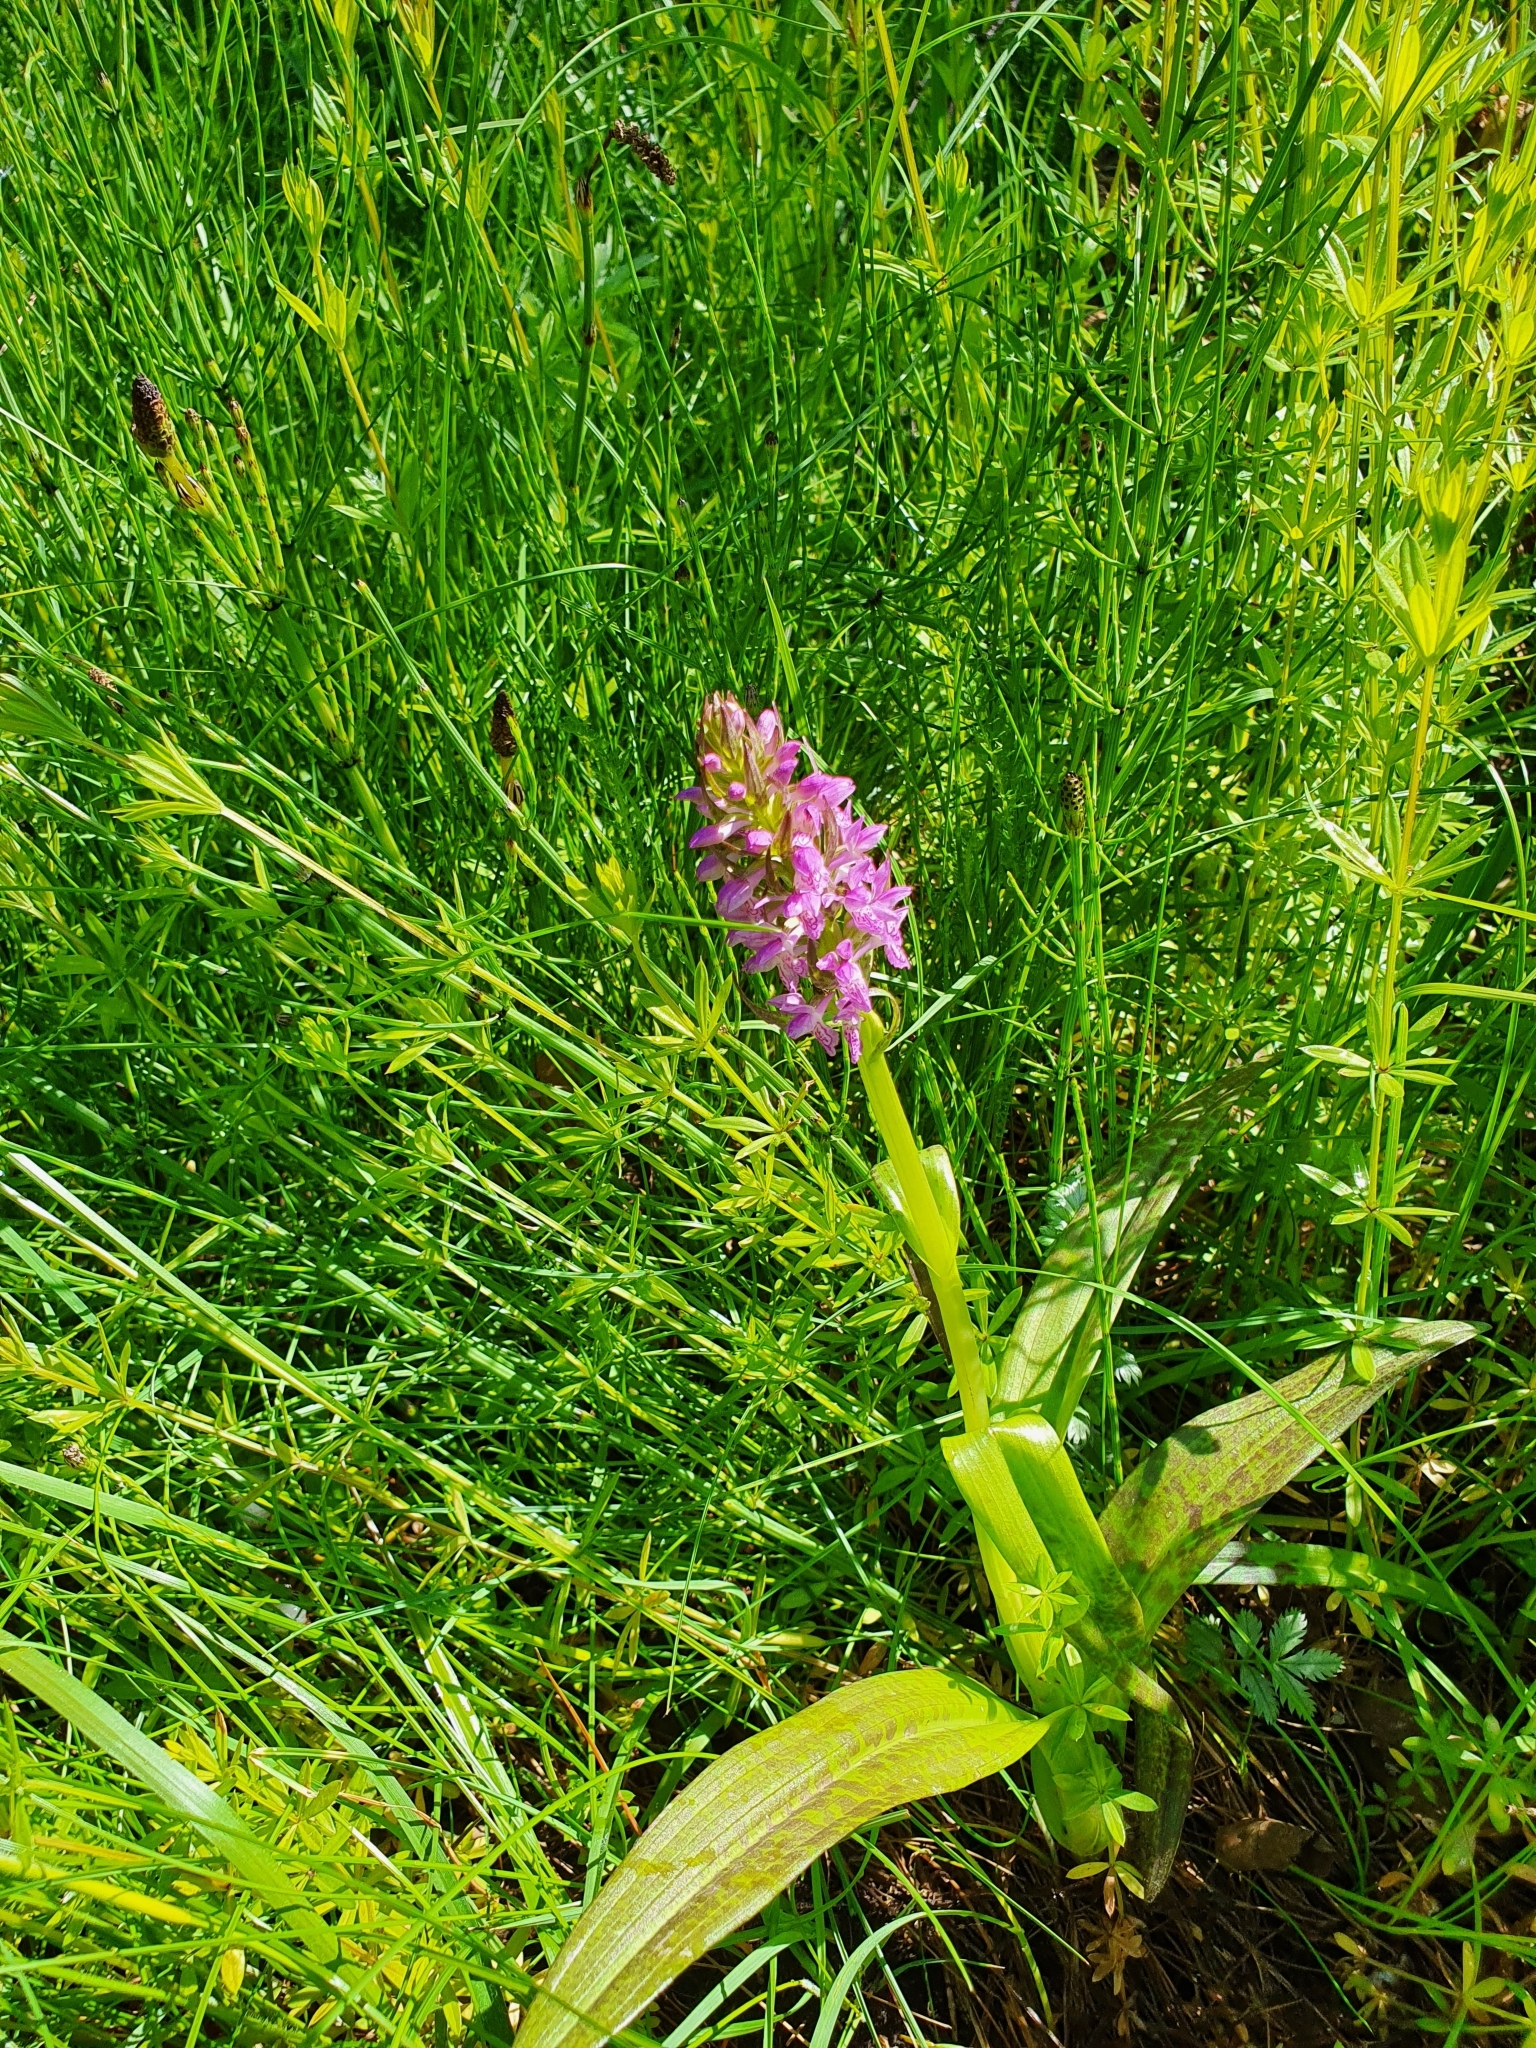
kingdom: Plantae
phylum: Tracheophyta
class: Liliopsida
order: Asparagales
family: Orchidaceae
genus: Dactylorhiza
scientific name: Dactylorhiza incarnata
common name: Early marsh-orchid
